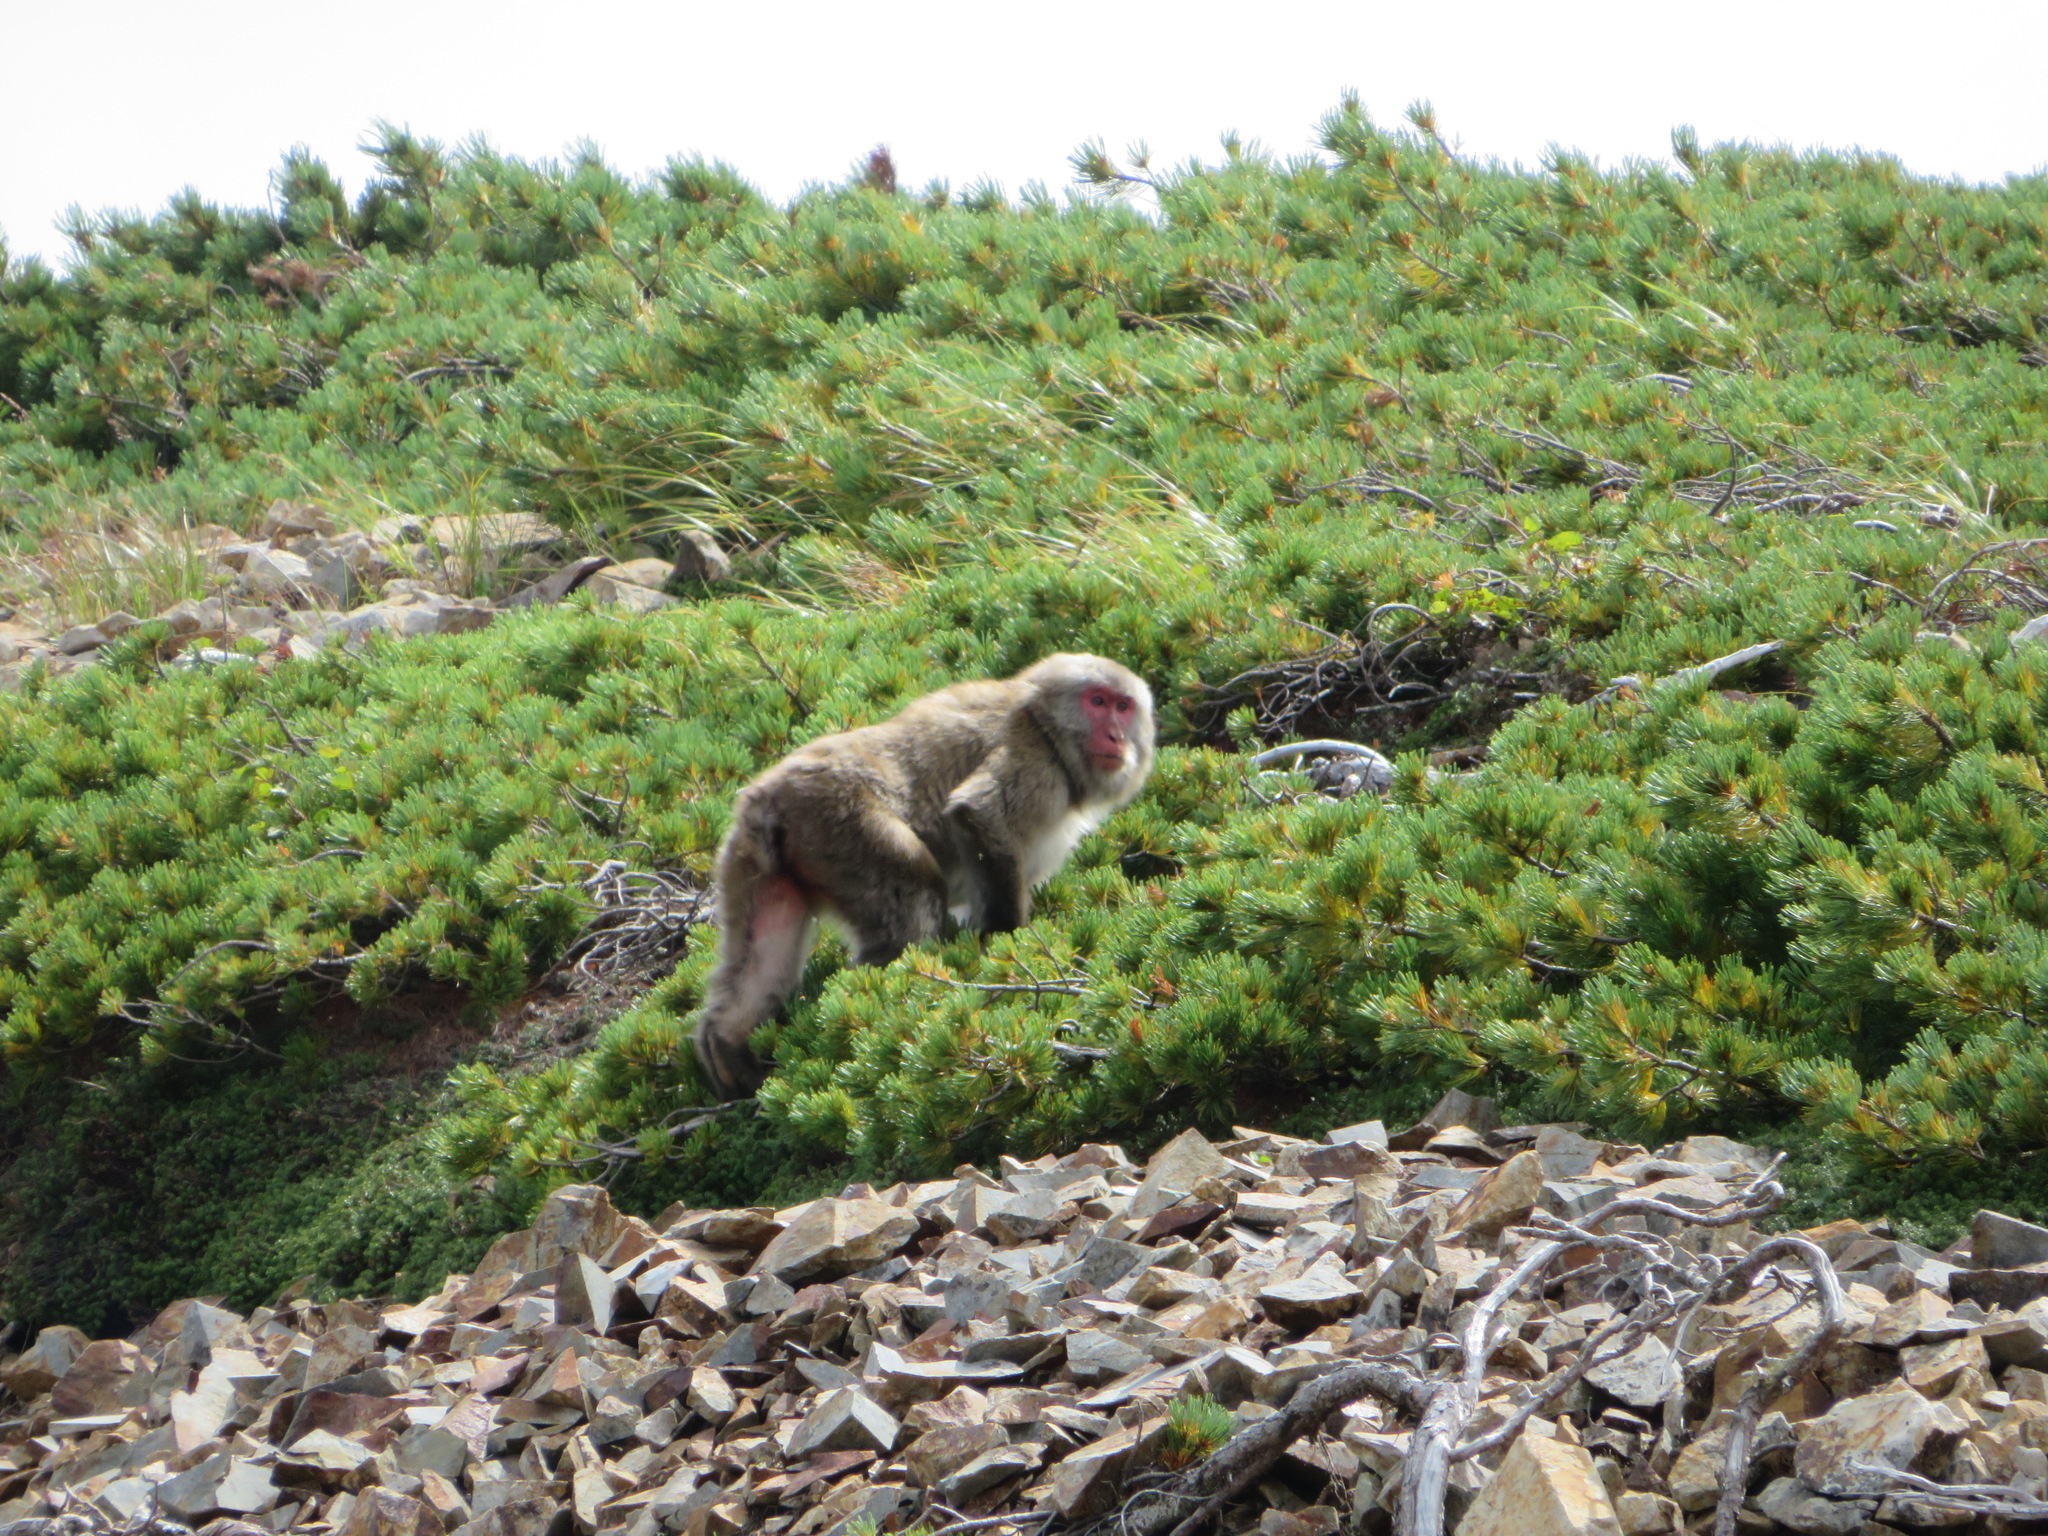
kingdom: Animalia
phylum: Chordata
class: Mammalia
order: Primates
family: Cercopithecidae
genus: Macaca
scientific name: Macaca fuscata
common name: Japanese macaque
